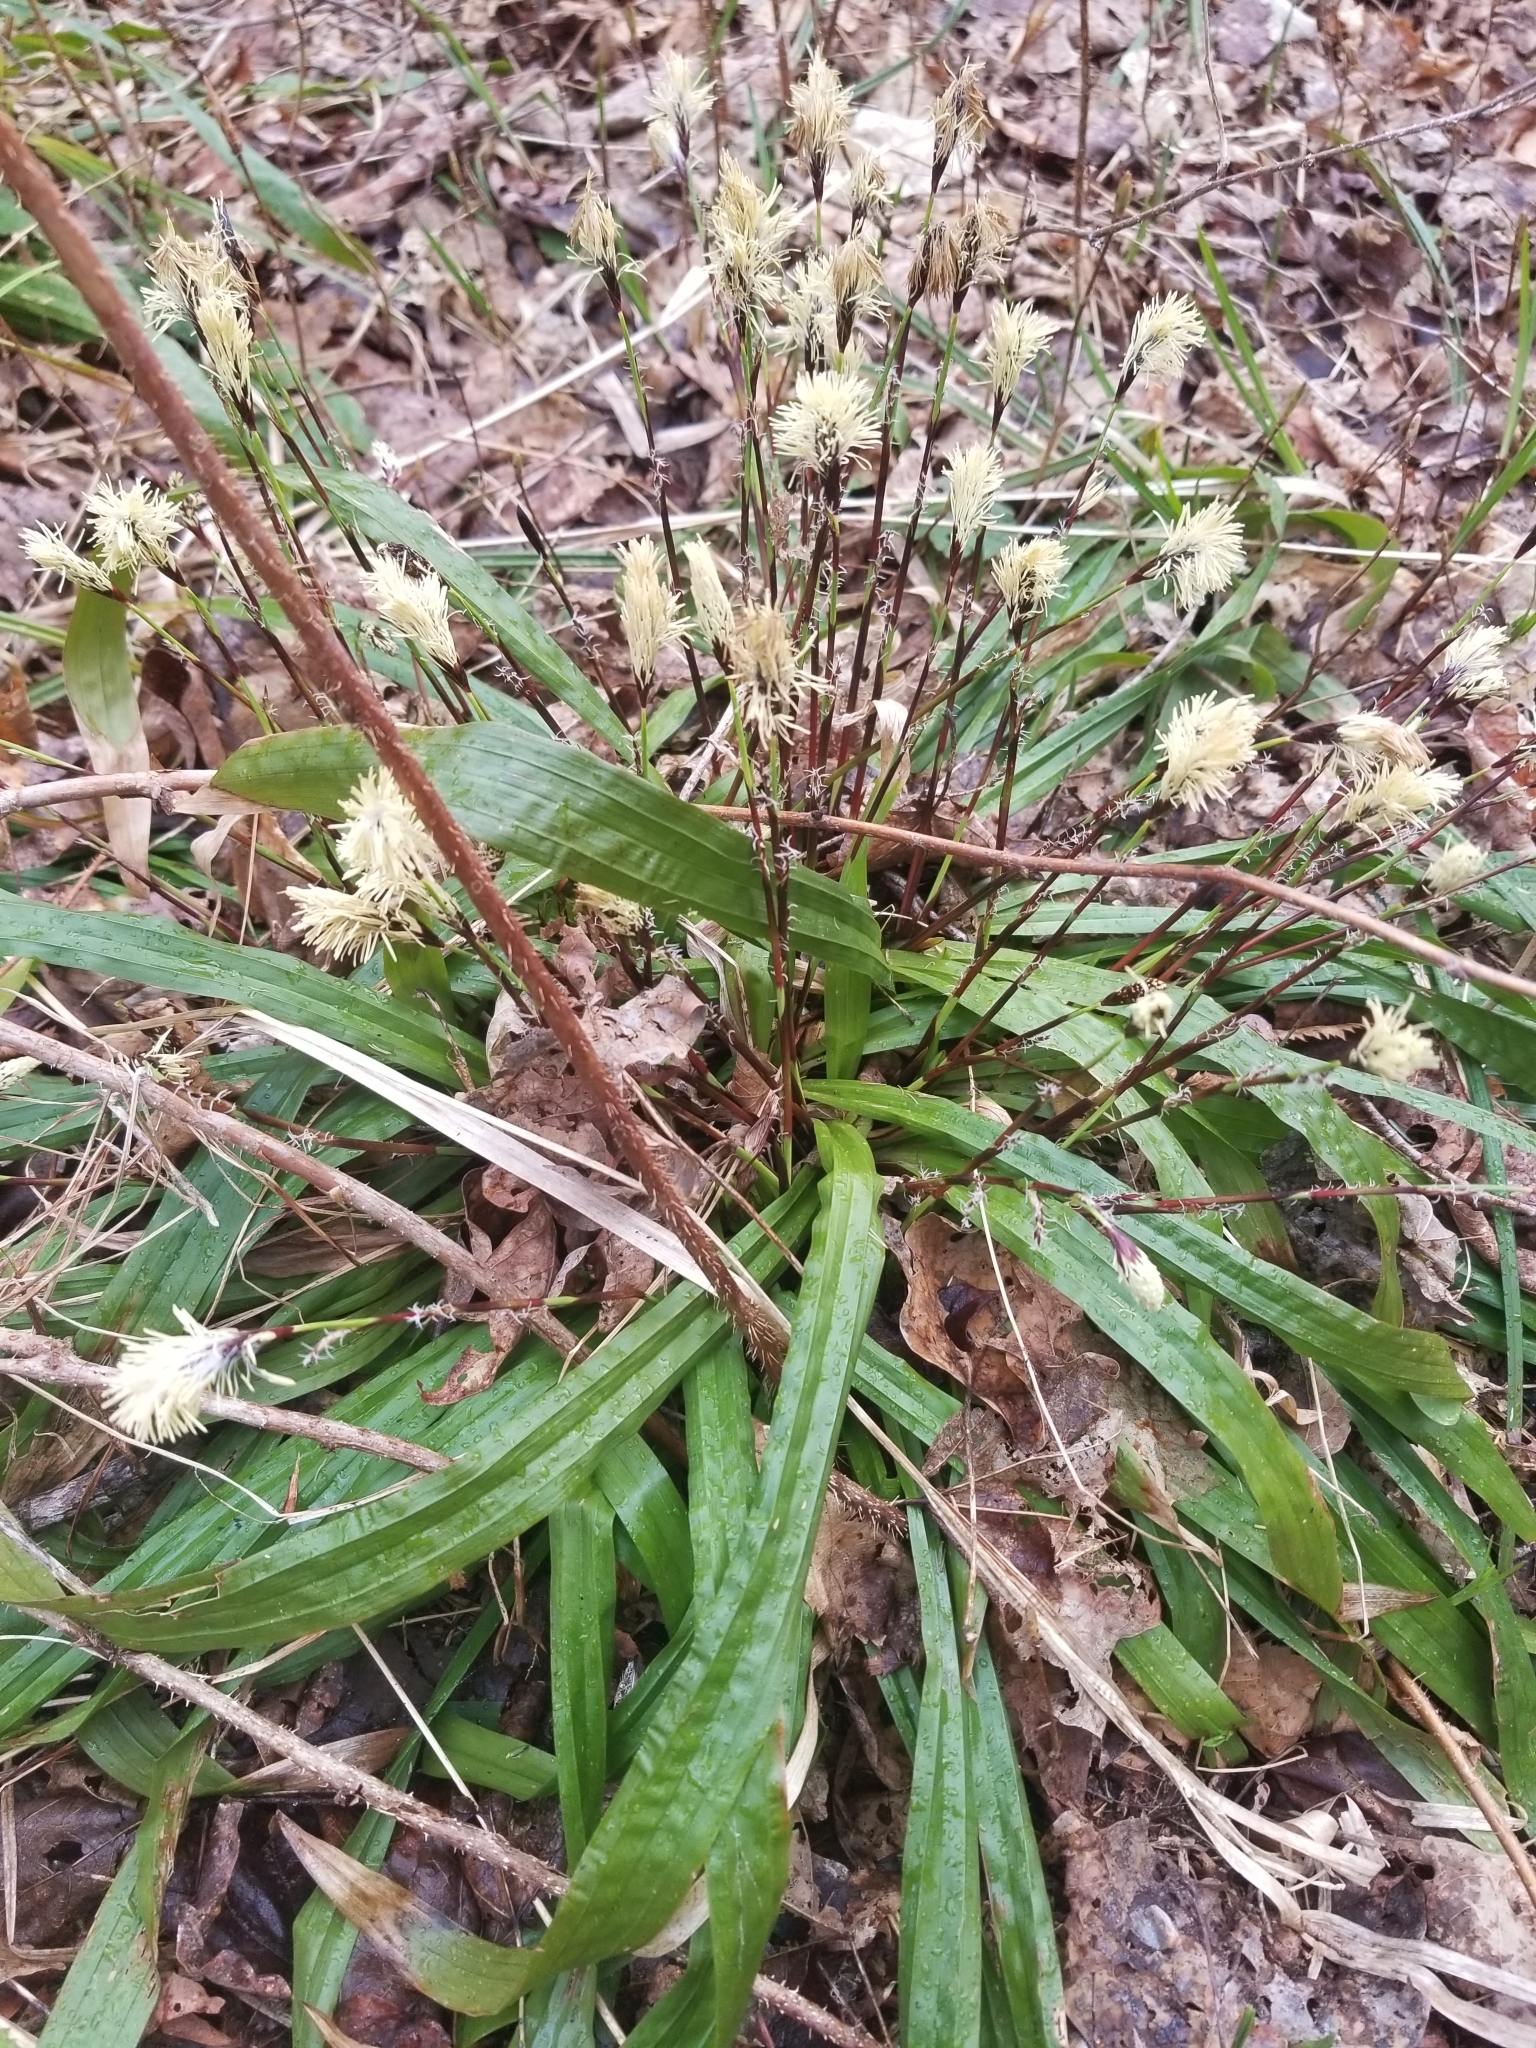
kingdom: Plantae
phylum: Tracheophyta
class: Liliopsida
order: Poales
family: Cyperaceae
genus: Carex
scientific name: Carex plantaginea
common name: Plantain-leaved sedge
